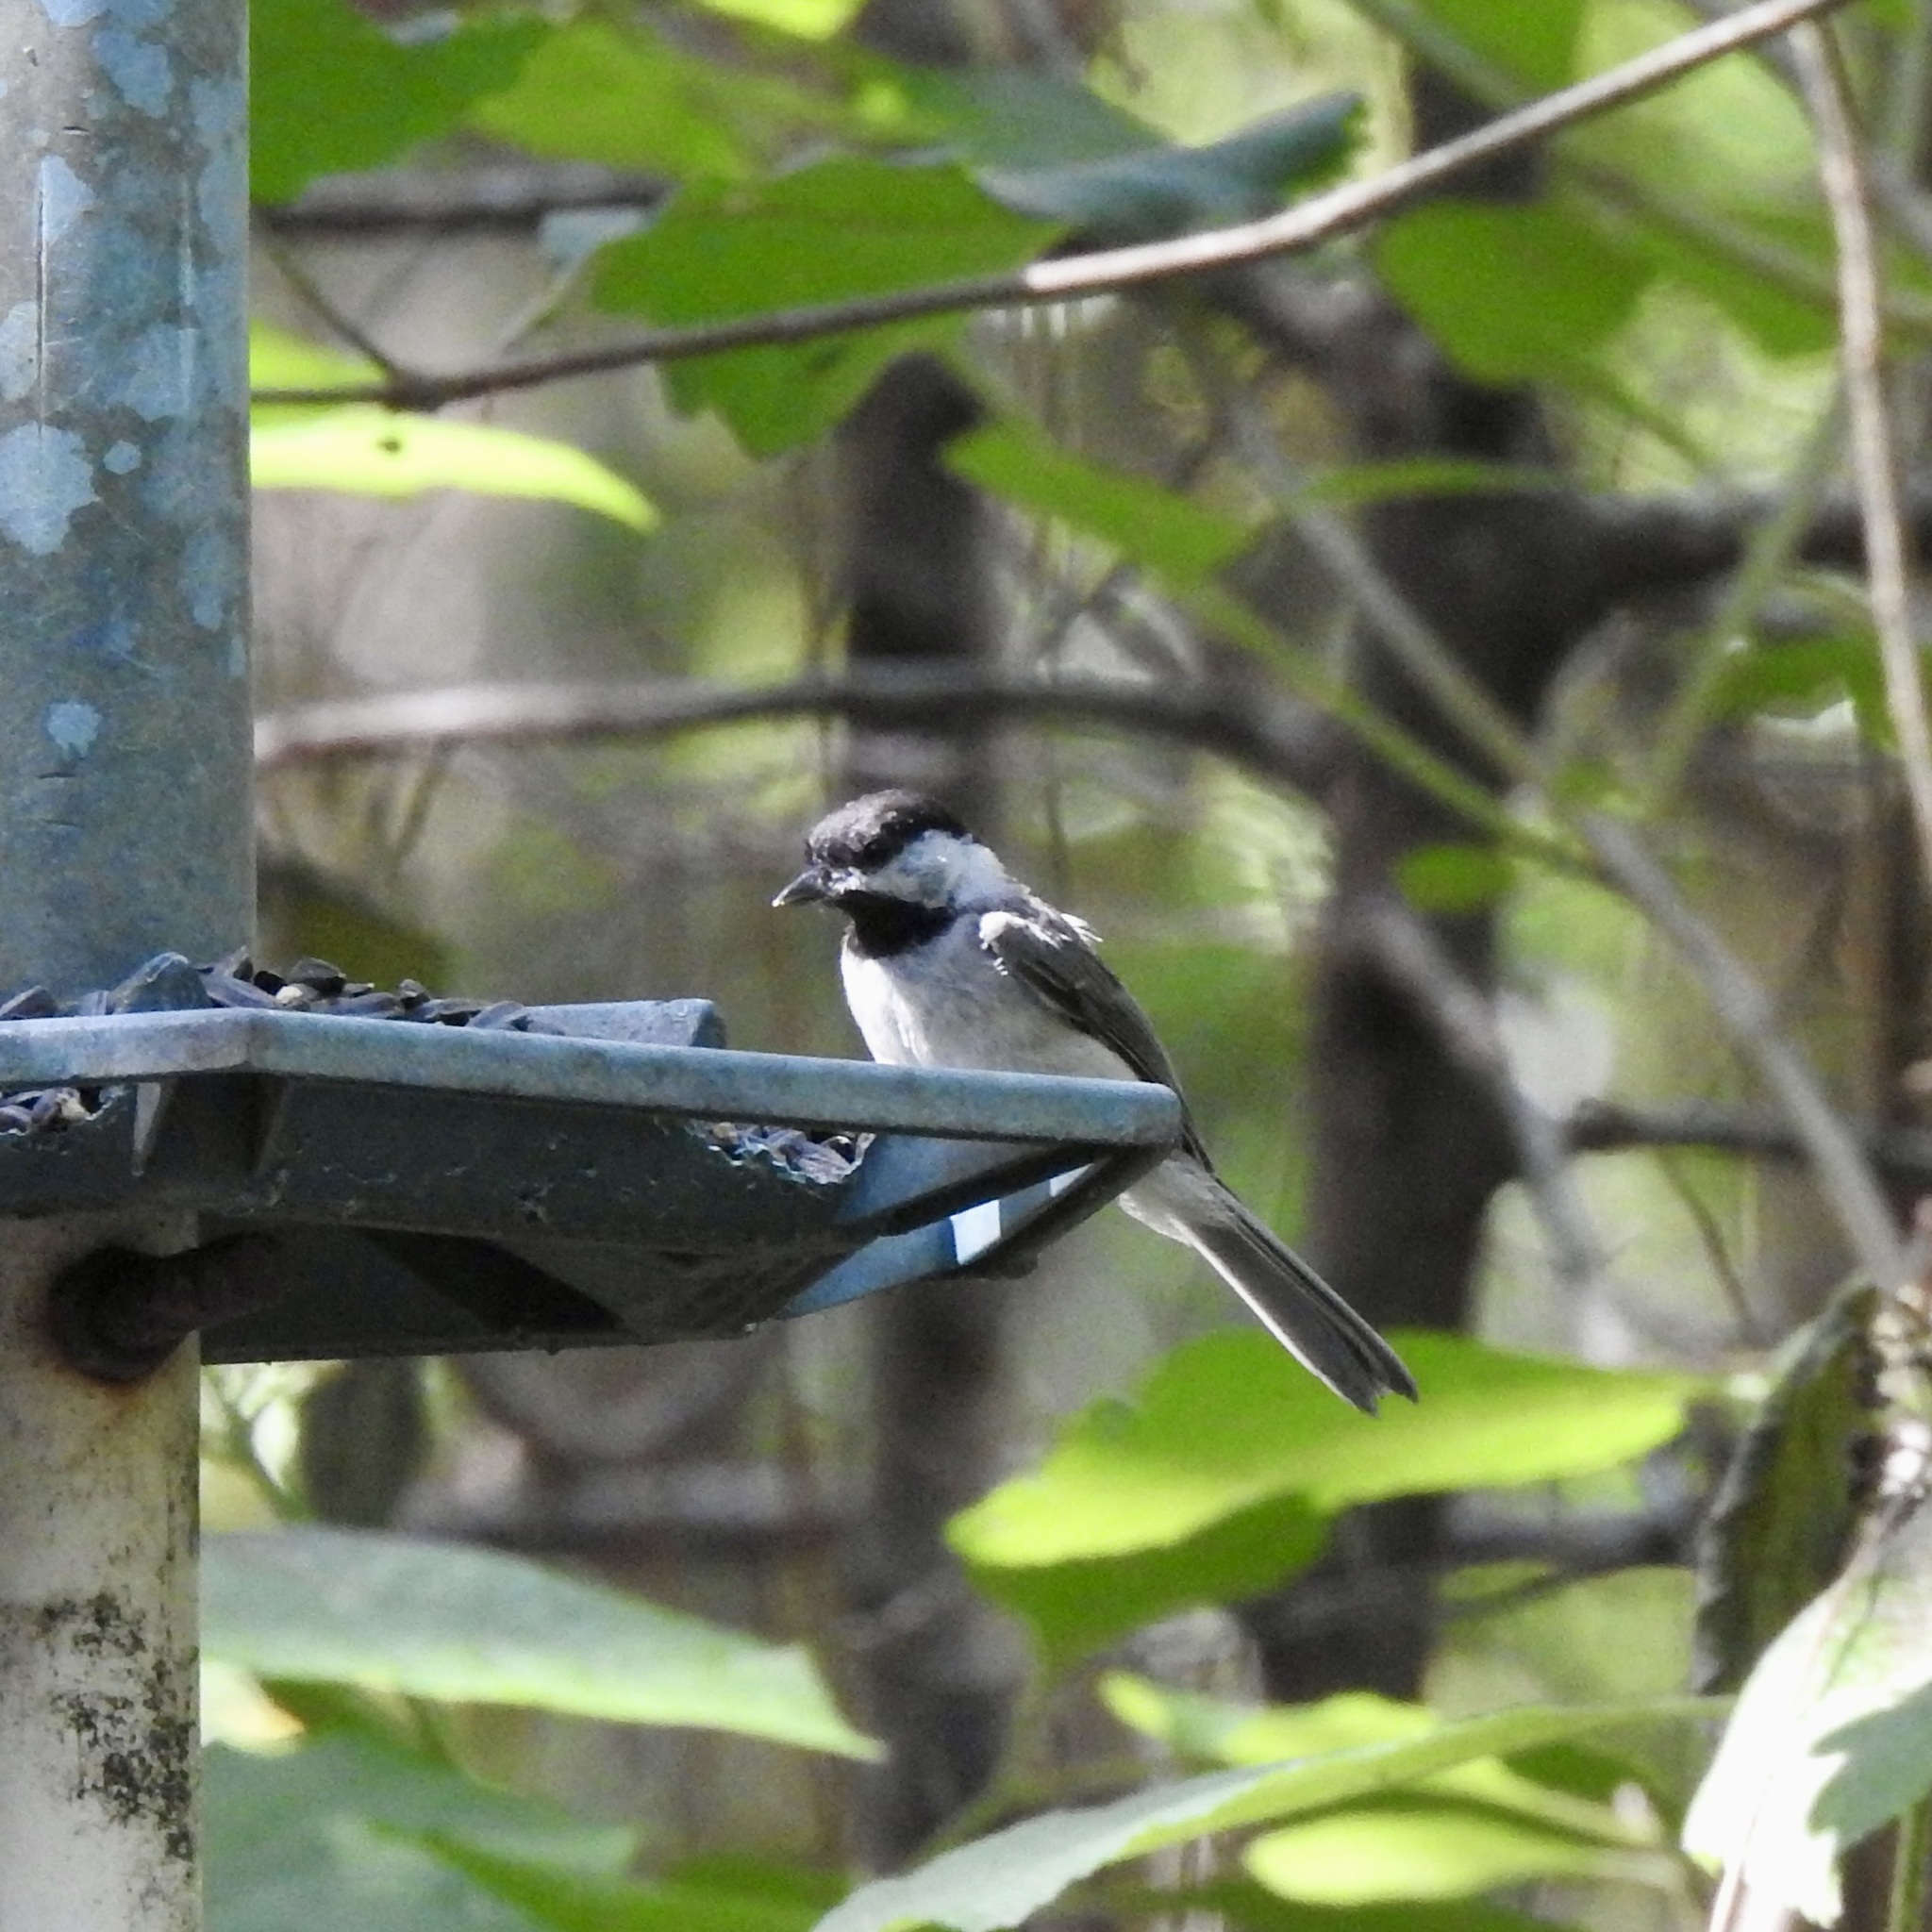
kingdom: Animalia
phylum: Chordata
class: Aves
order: Passeriformes
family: Paridae
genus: Poecile
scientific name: Poecile carolinensis
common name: Carolina chickadee
